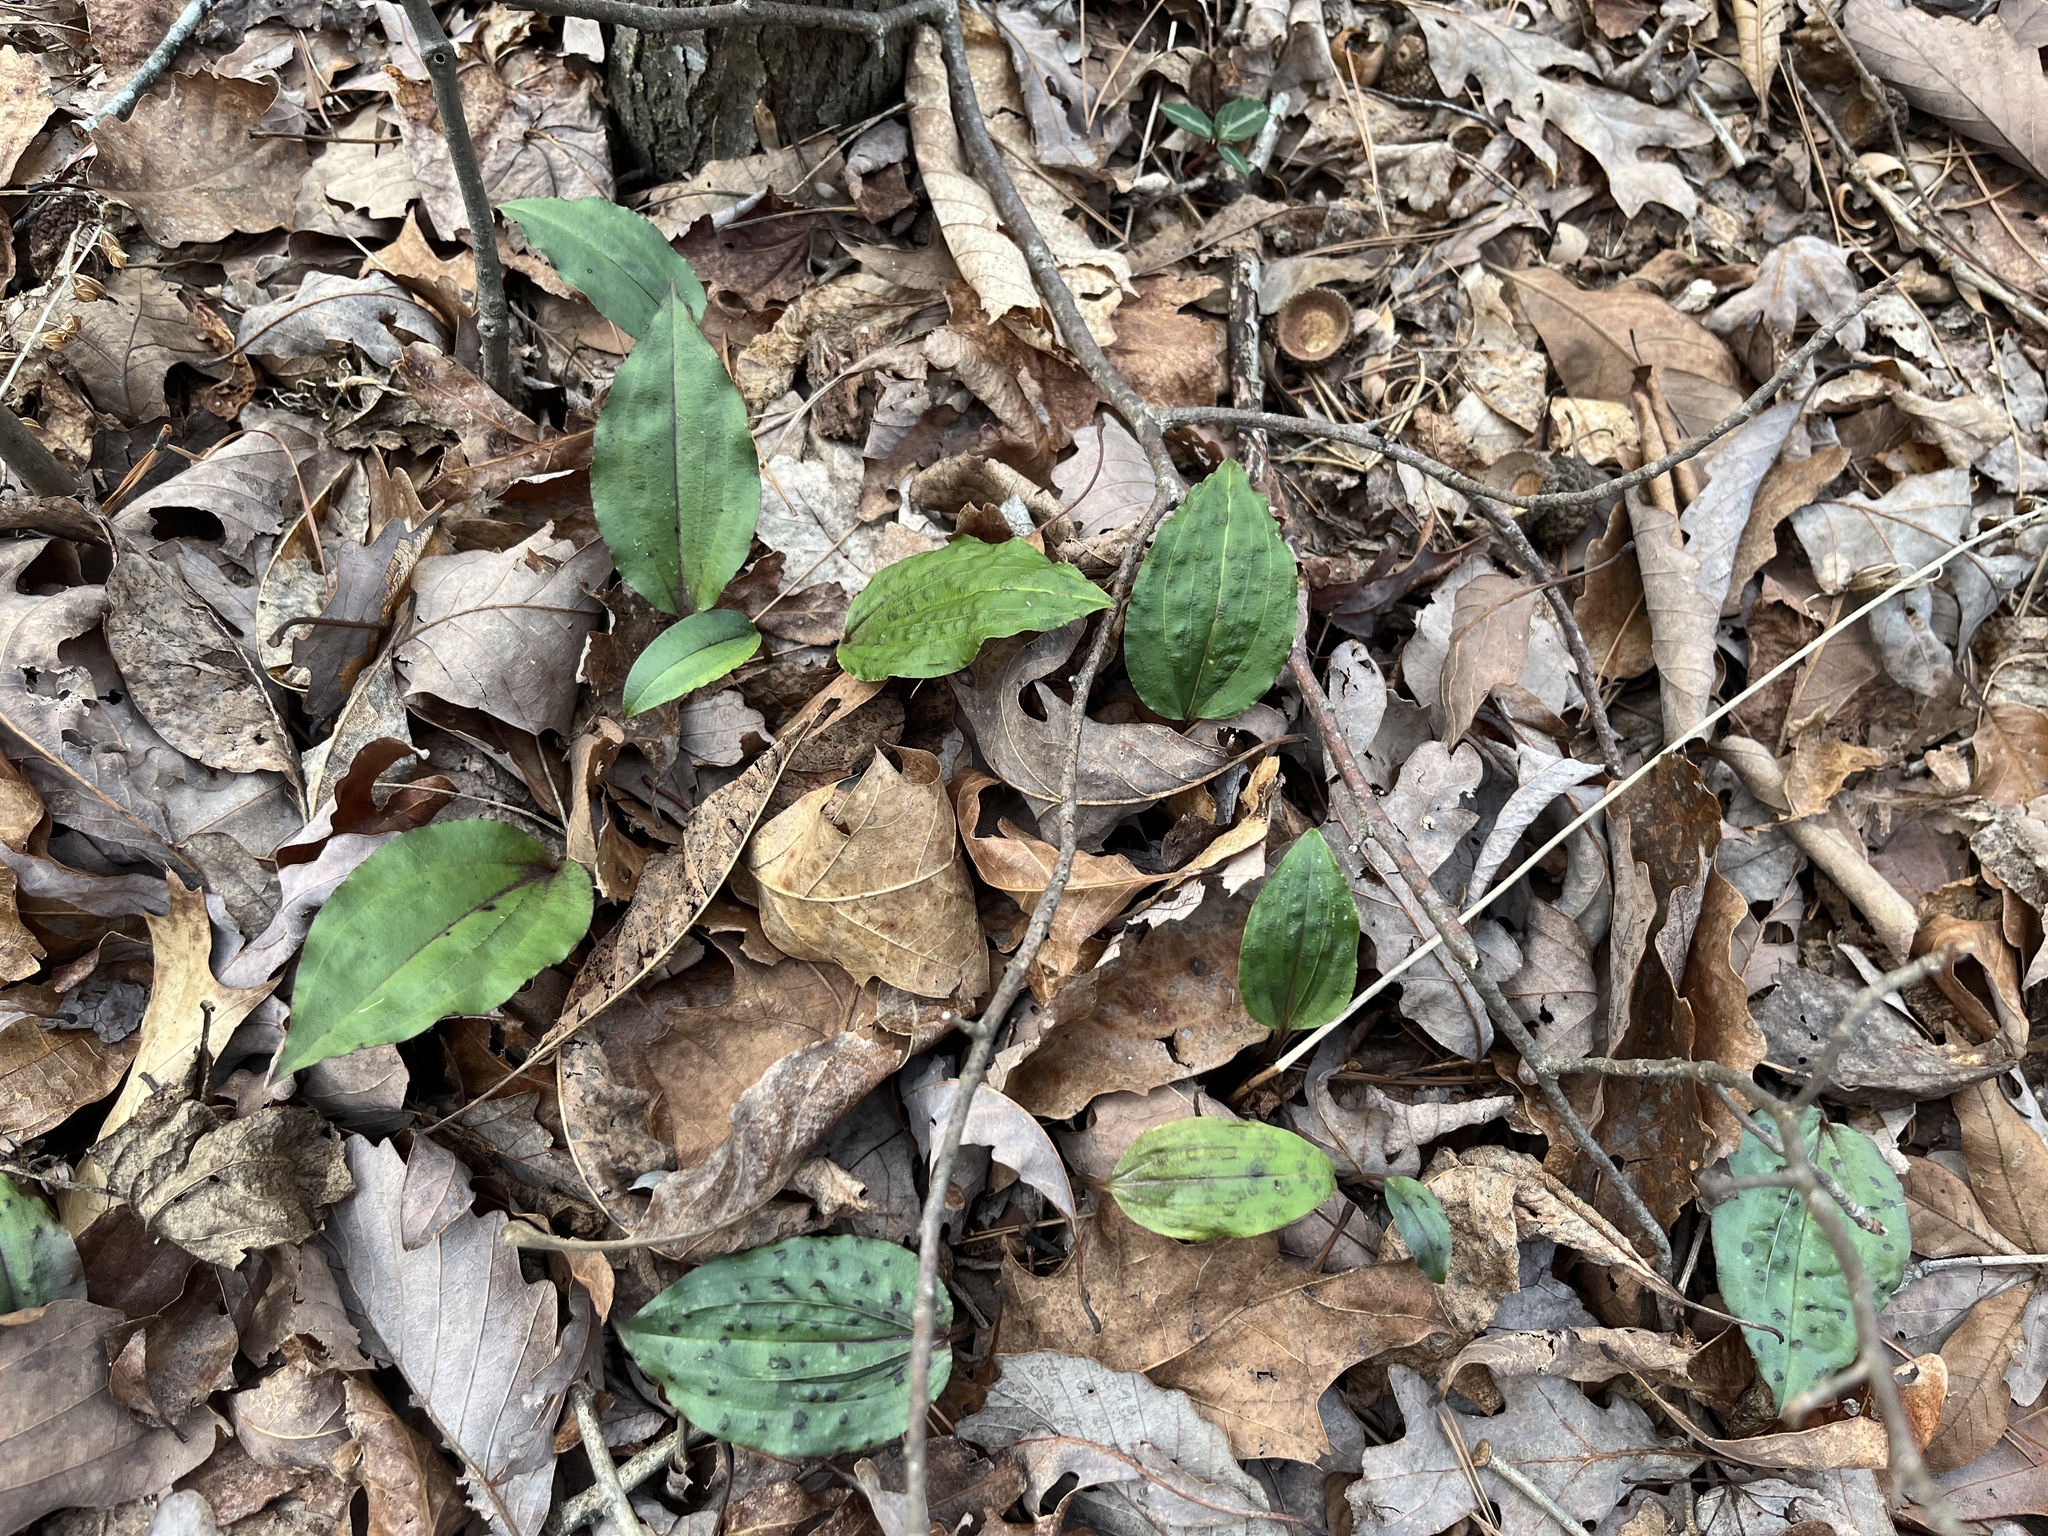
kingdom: Plantae
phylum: Tracheophyta
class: Liliopsida
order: Asparagales
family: Orchidaceae
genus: Tipularia
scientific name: Tipularia discolor
